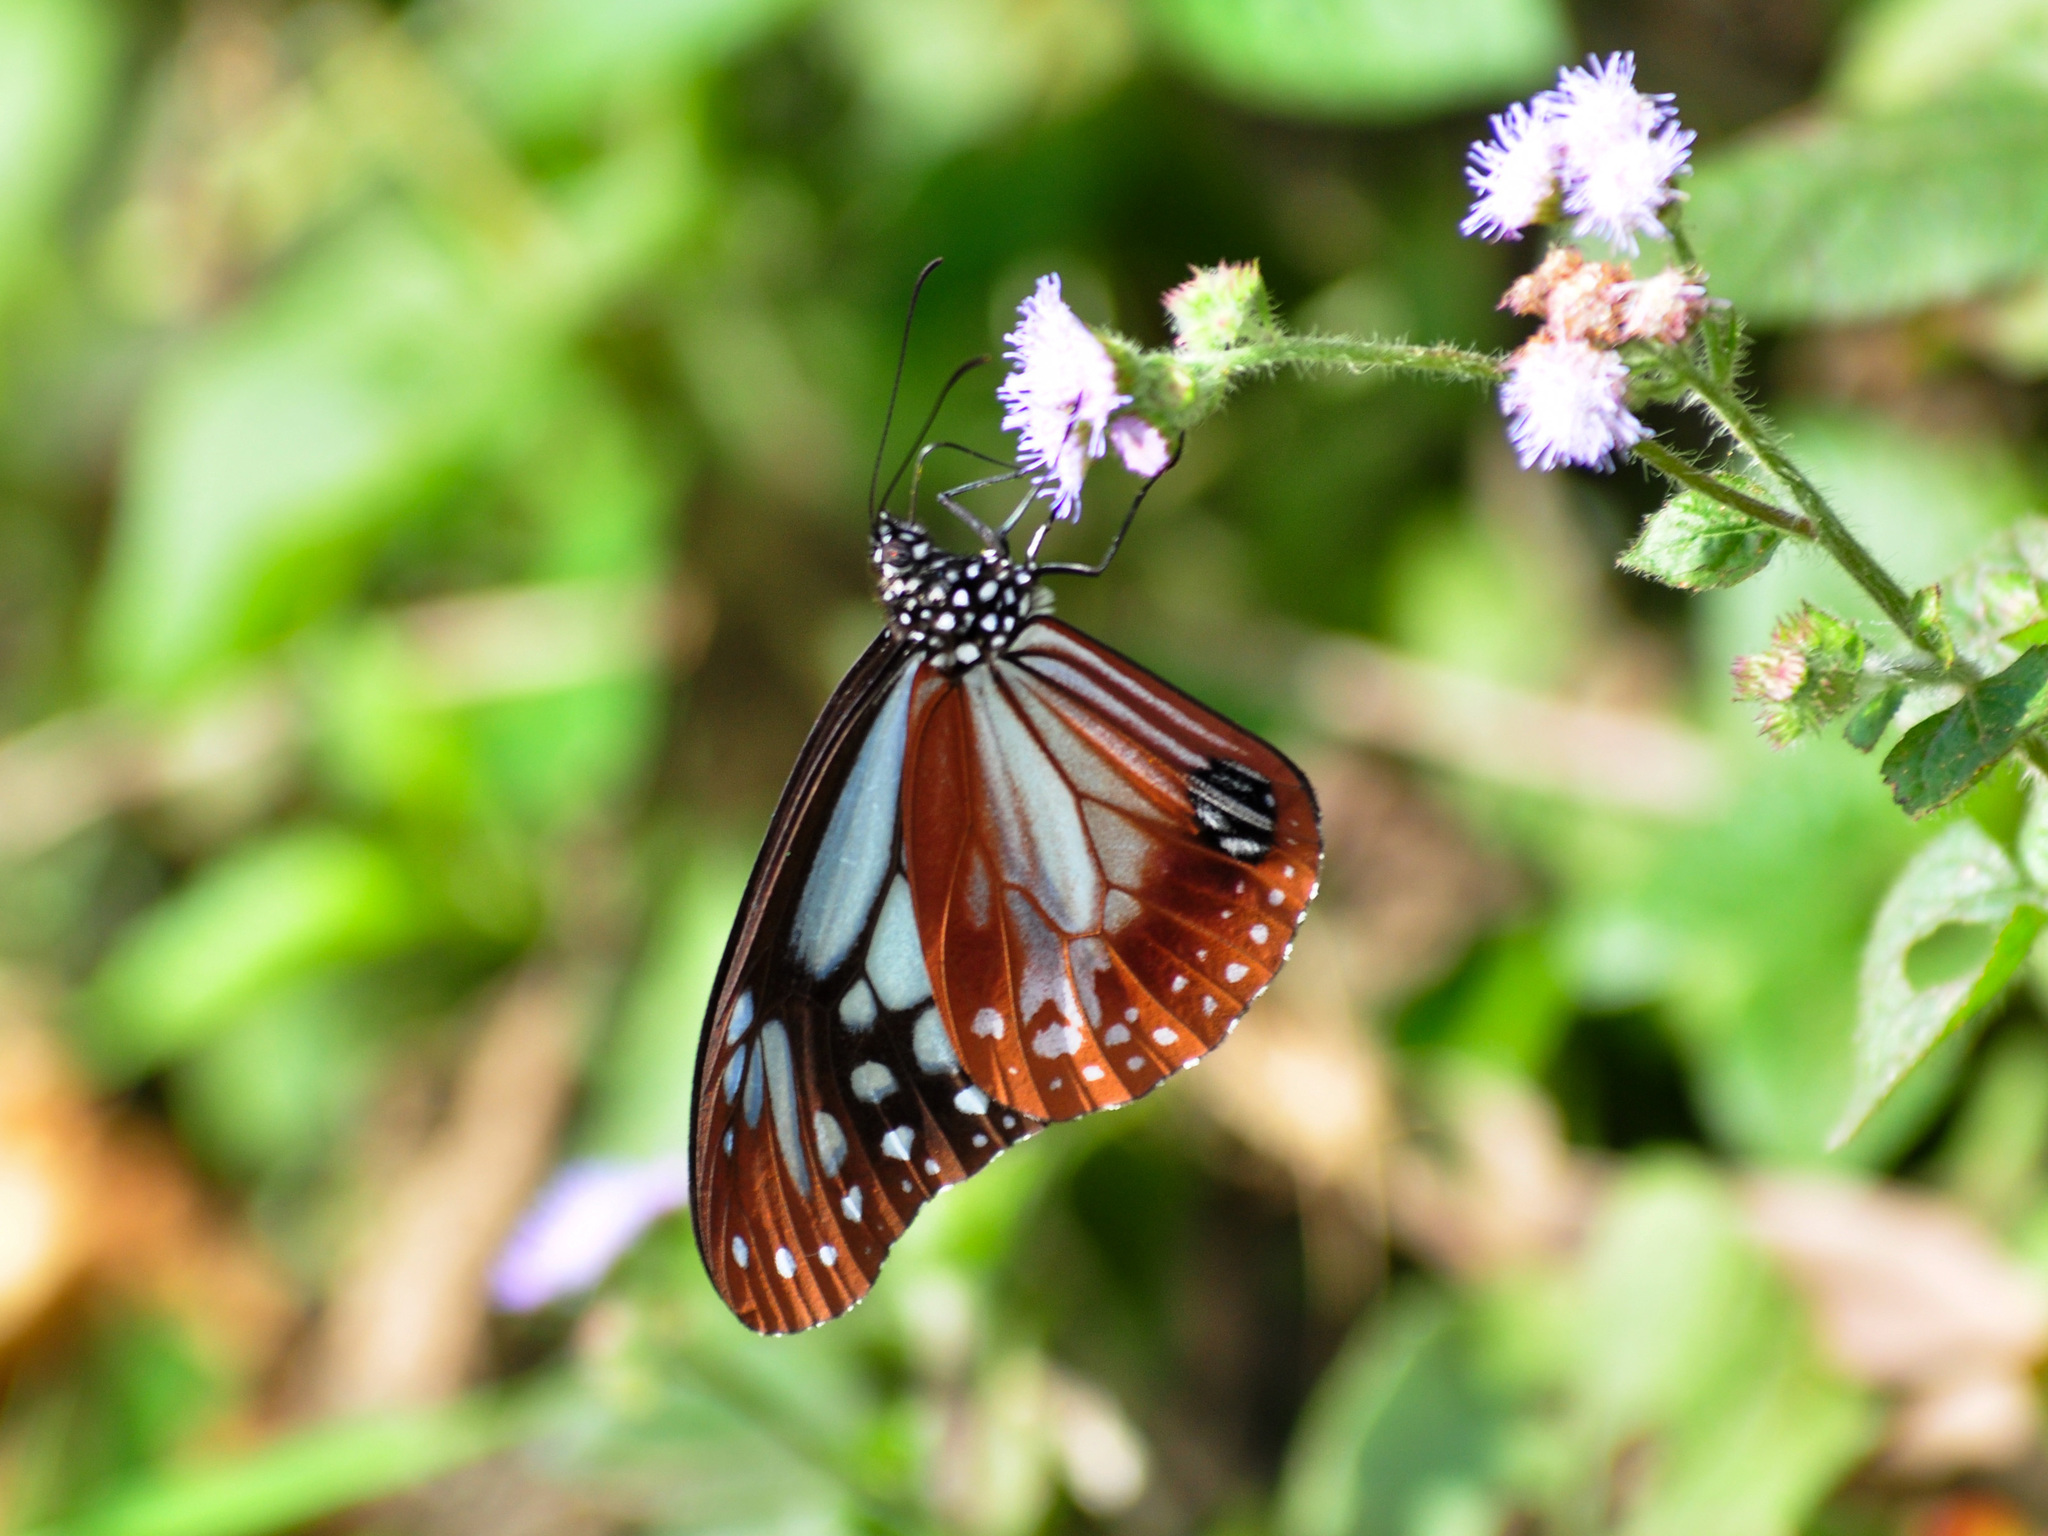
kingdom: Animalia
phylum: Arthropoda
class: Insecta
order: Lepidoptera
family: Nymphalidae
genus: Parantica
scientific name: Parantica sita
